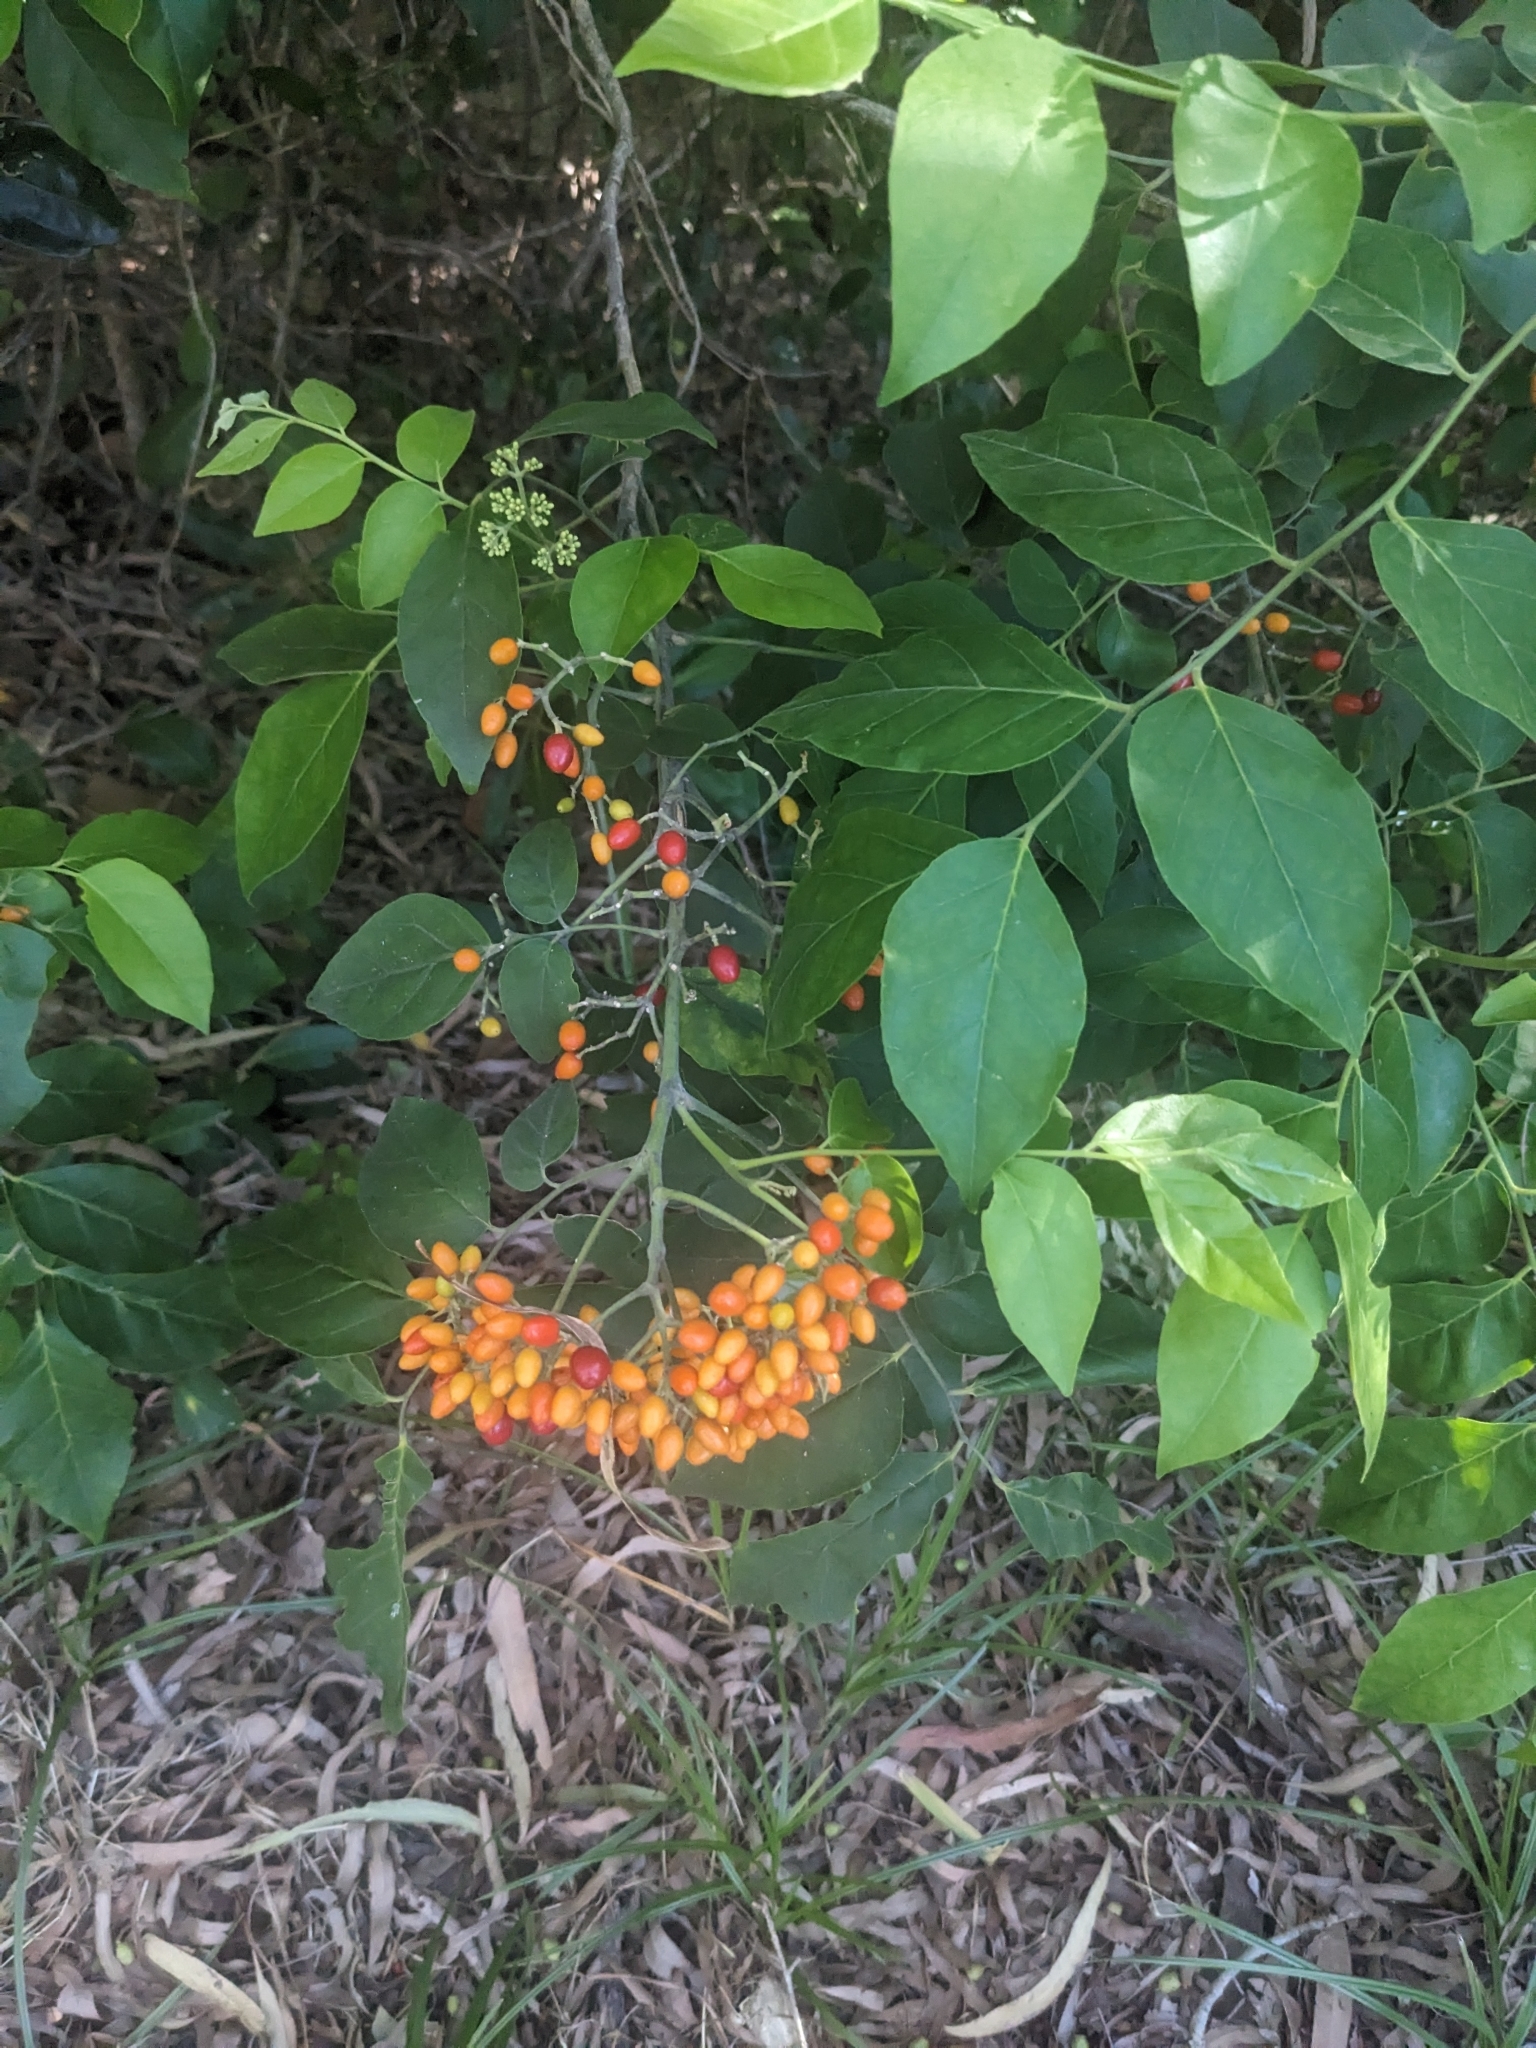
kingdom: Plantae
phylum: Tracheophyta
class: Magnoliopsida
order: Sapindales
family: Rutaceae
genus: Micromelum
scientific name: Micromelum minutum
